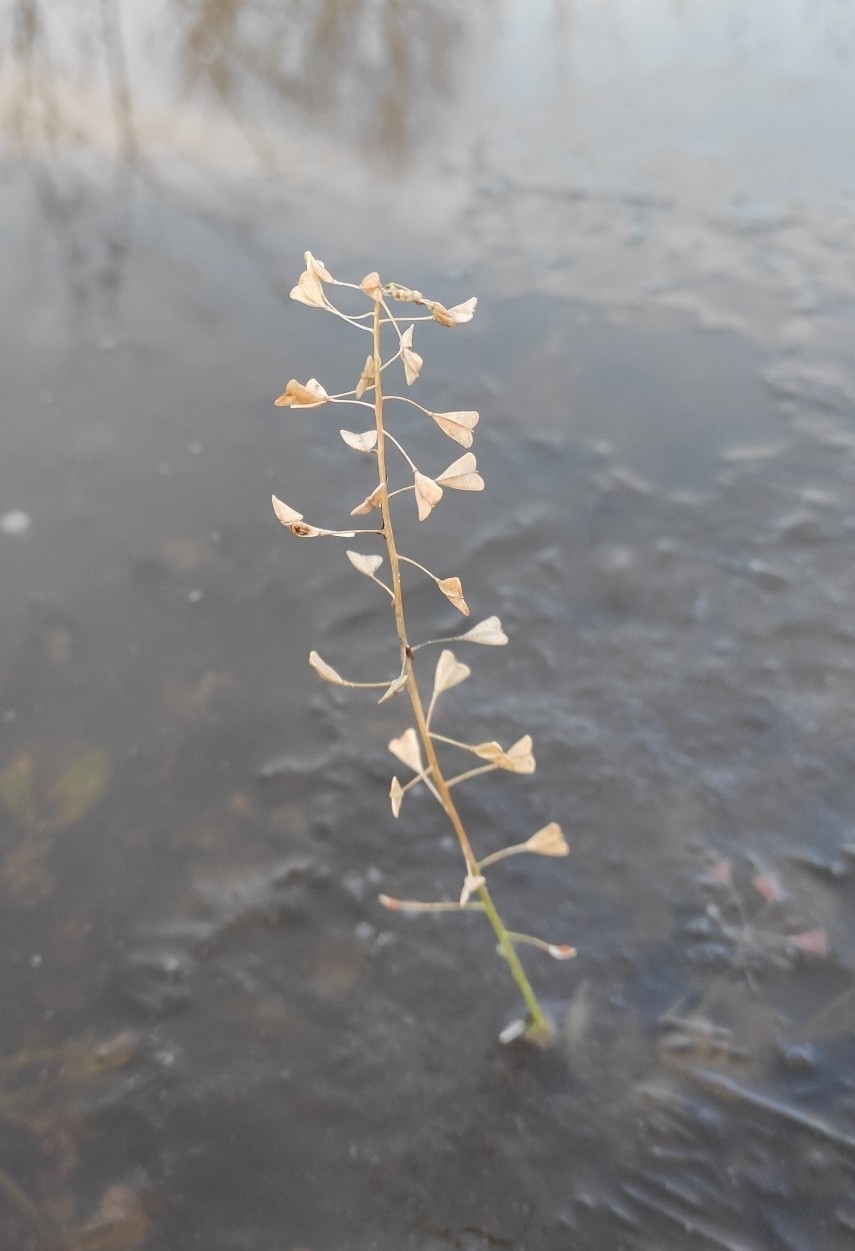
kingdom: Plantae
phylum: Tracheophyta
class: Magnoliopsida
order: Brassicales
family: Brassicaceae
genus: Capsella
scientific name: Capsella bursa-pastoris
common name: Shepherd's purse
